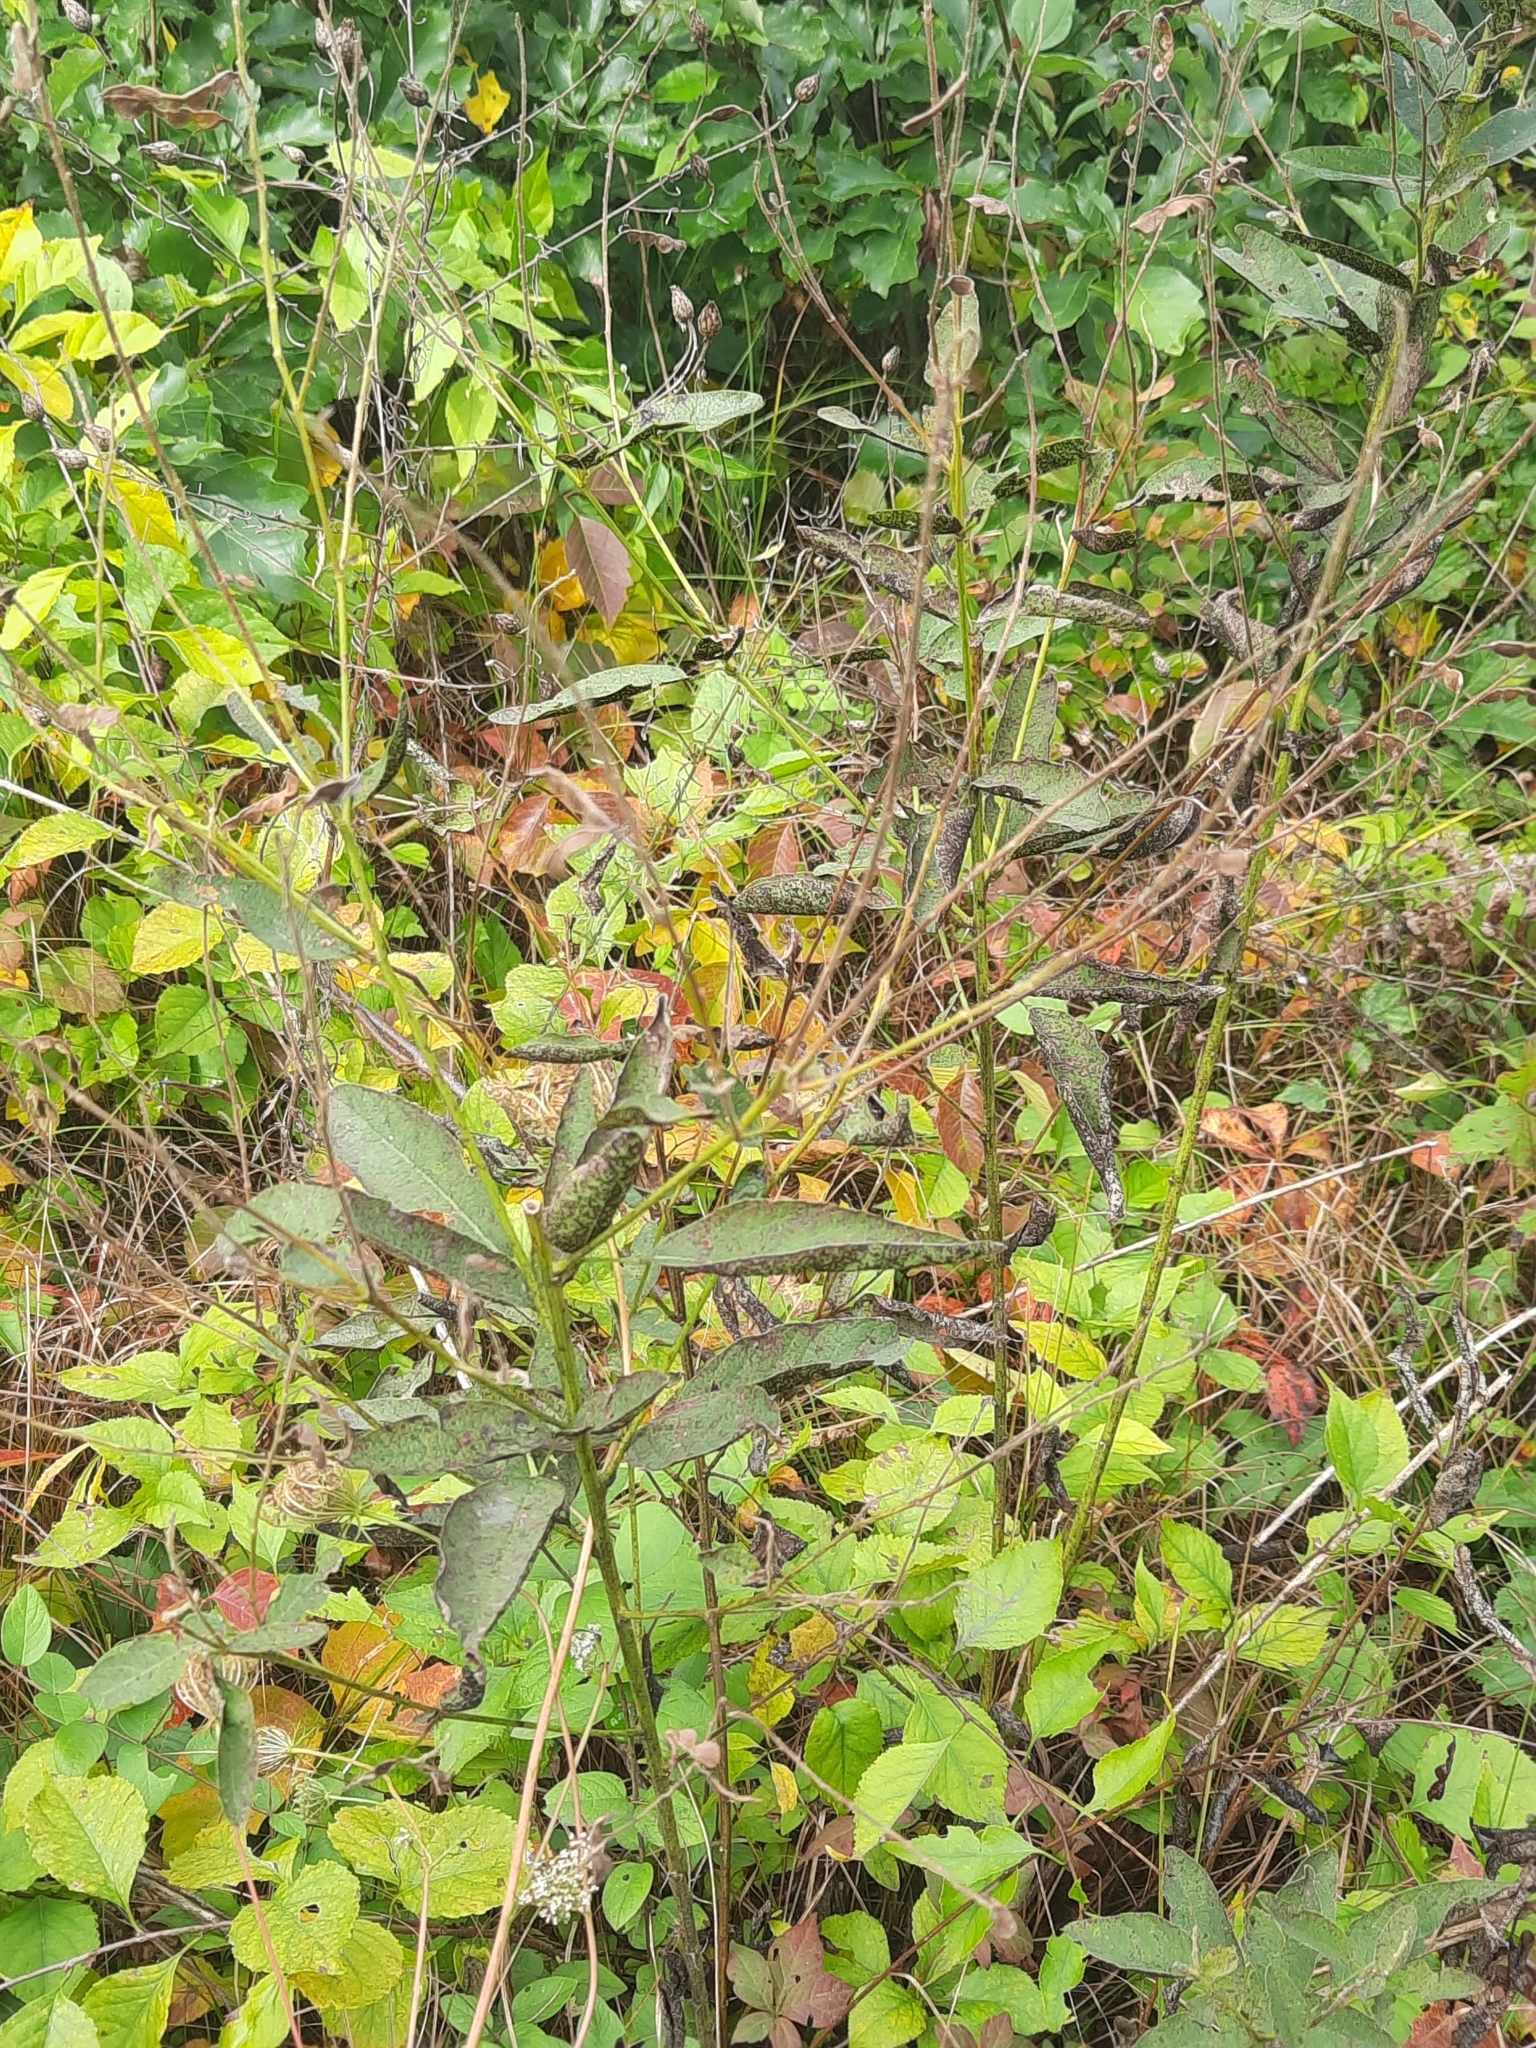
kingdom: Plantae
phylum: Tracheophyta
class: Magnoliopsida
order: Lamiales
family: Verbenaceae
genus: Verbena
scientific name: Verbena urticifolia
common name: Nettle-leaved vervain
